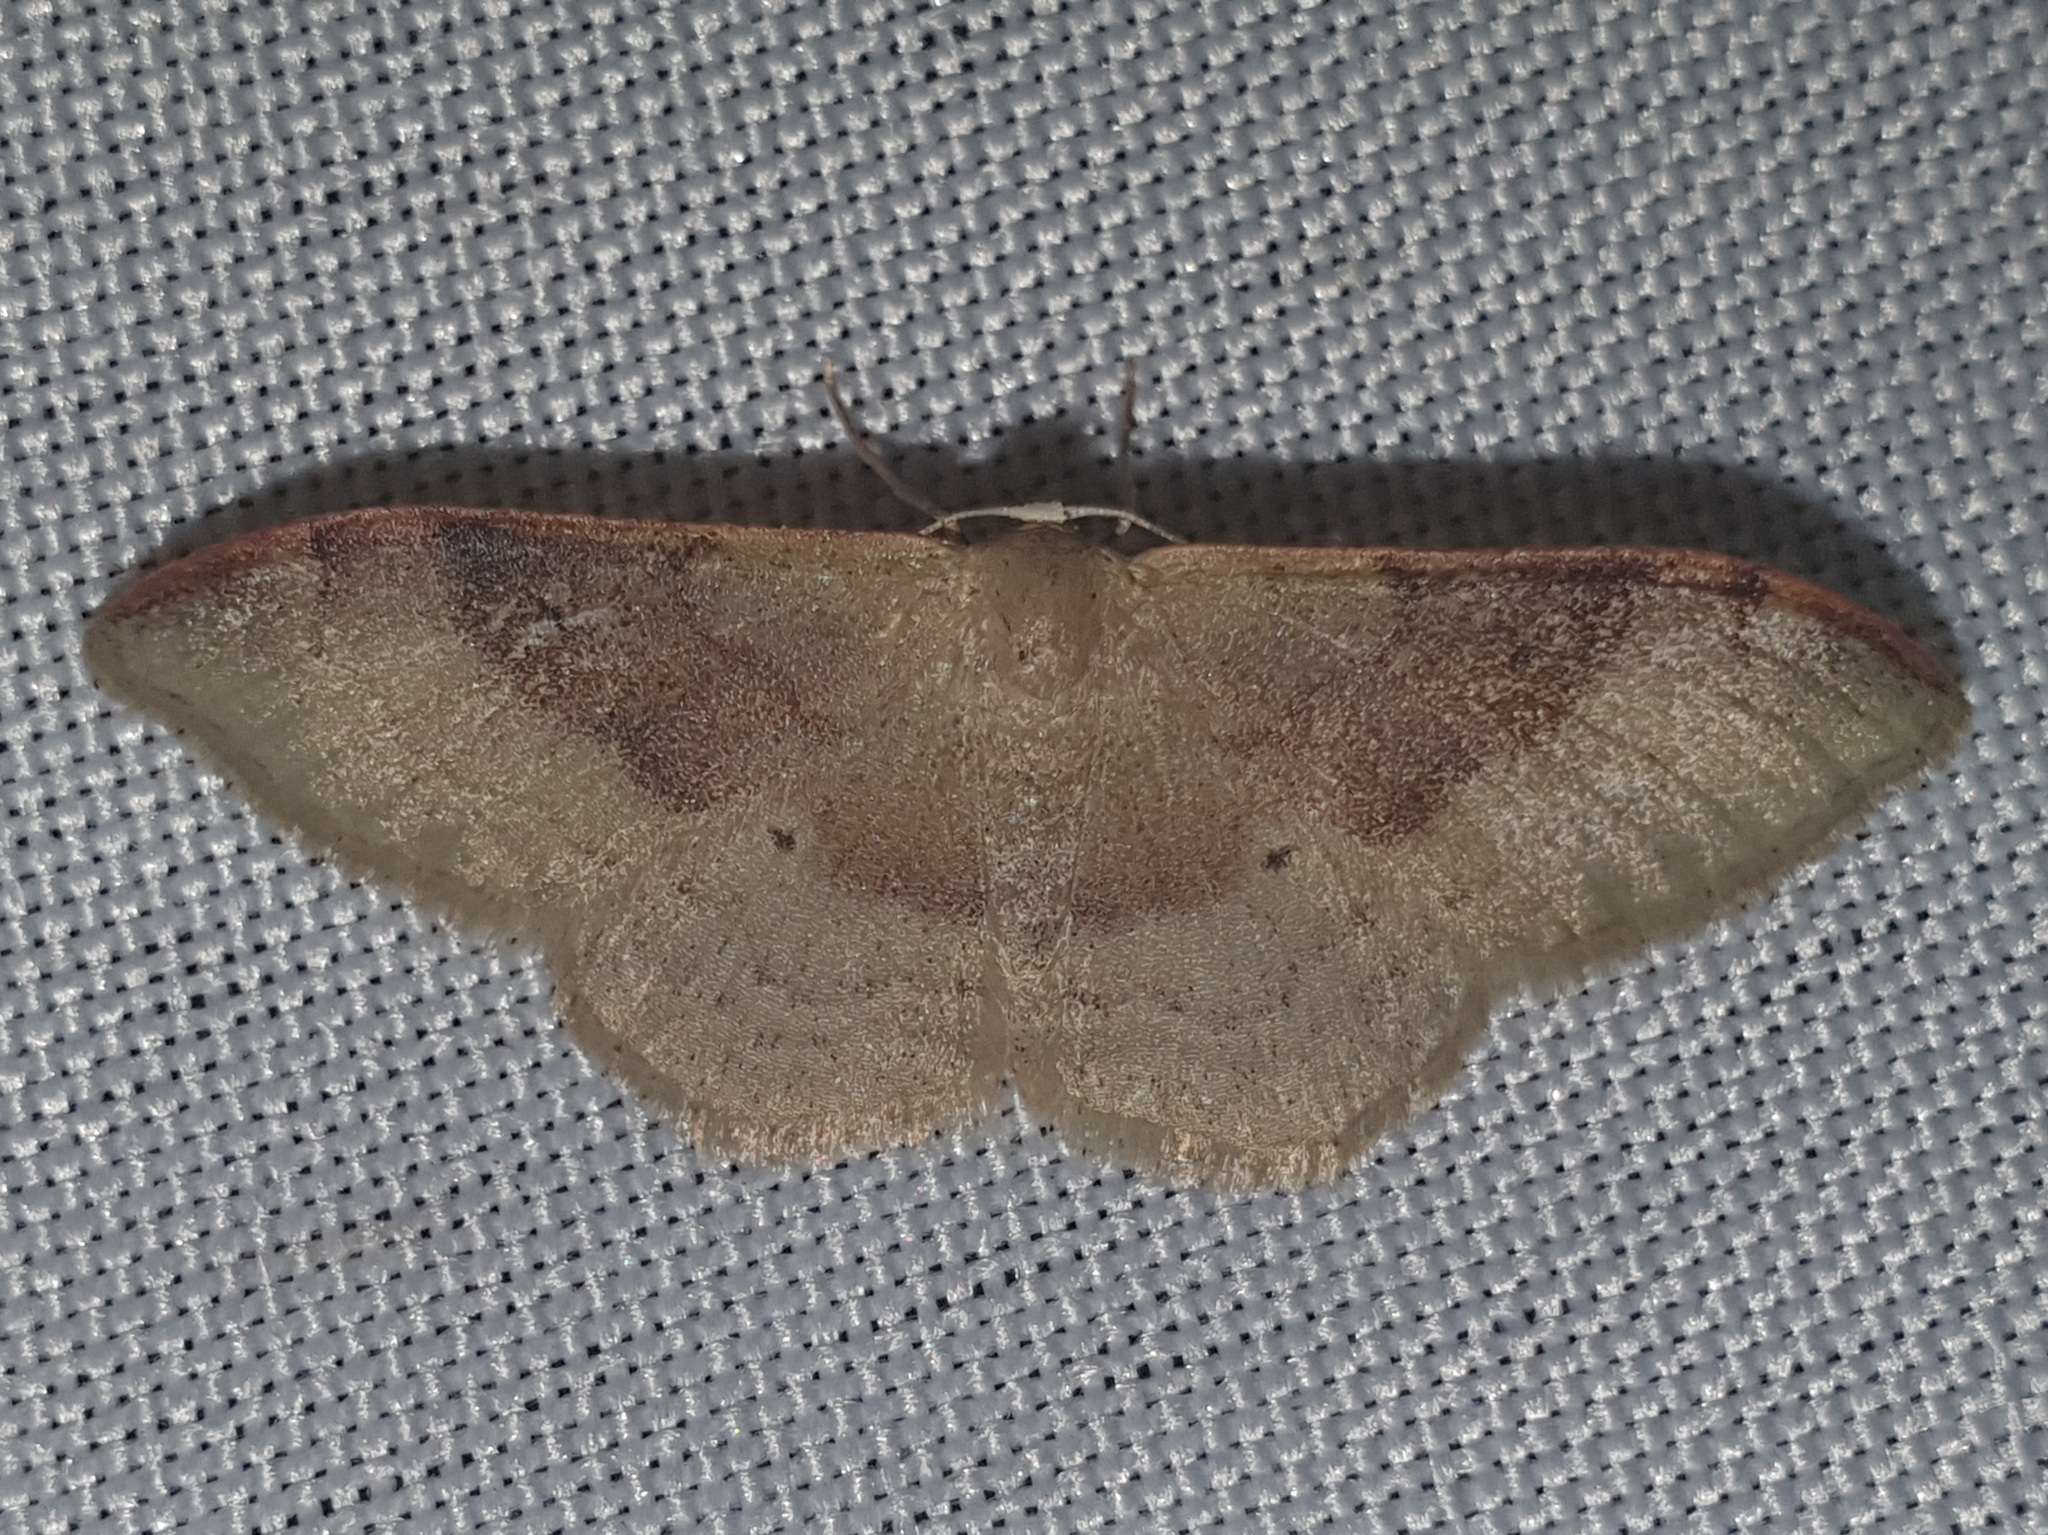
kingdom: Animalia
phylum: Arthropoda
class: Insecta
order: Lepidoptera
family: Geometridae
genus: Idaea
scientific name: Idaea degeneraria
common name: Portland ribbon wave
